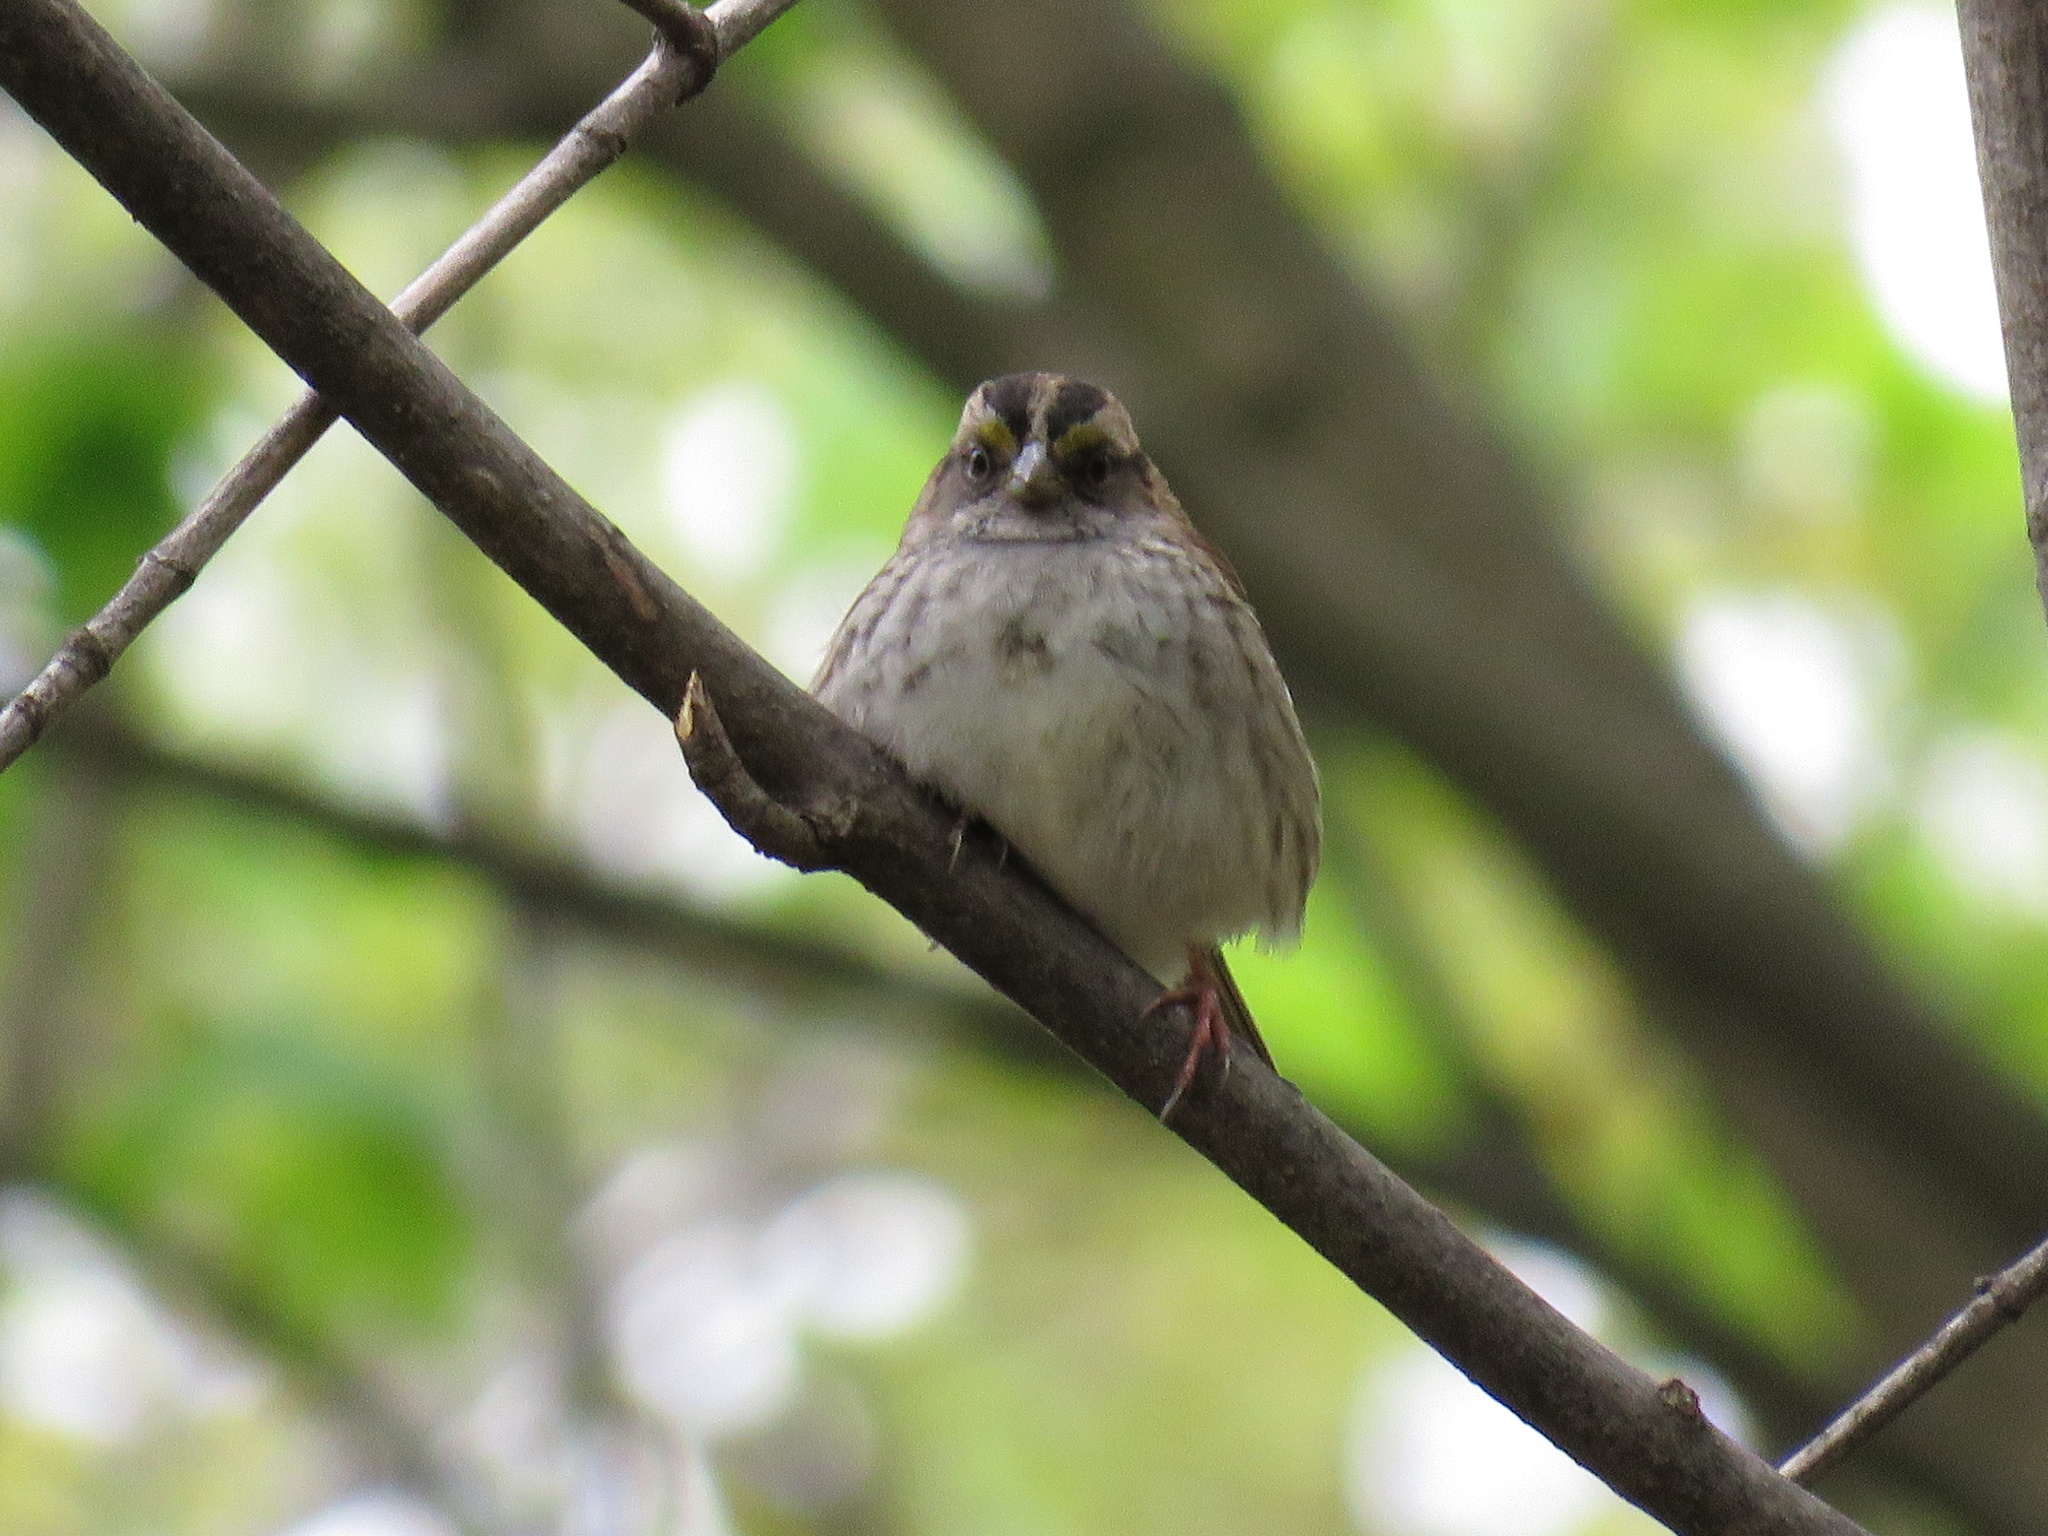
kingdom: Animalia
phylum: Chordata
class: Aves
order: Passeriformes
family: Passerellidae
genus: Zonotrichia
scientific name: Zonotrichia albicollis
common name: White-throated sparrow
